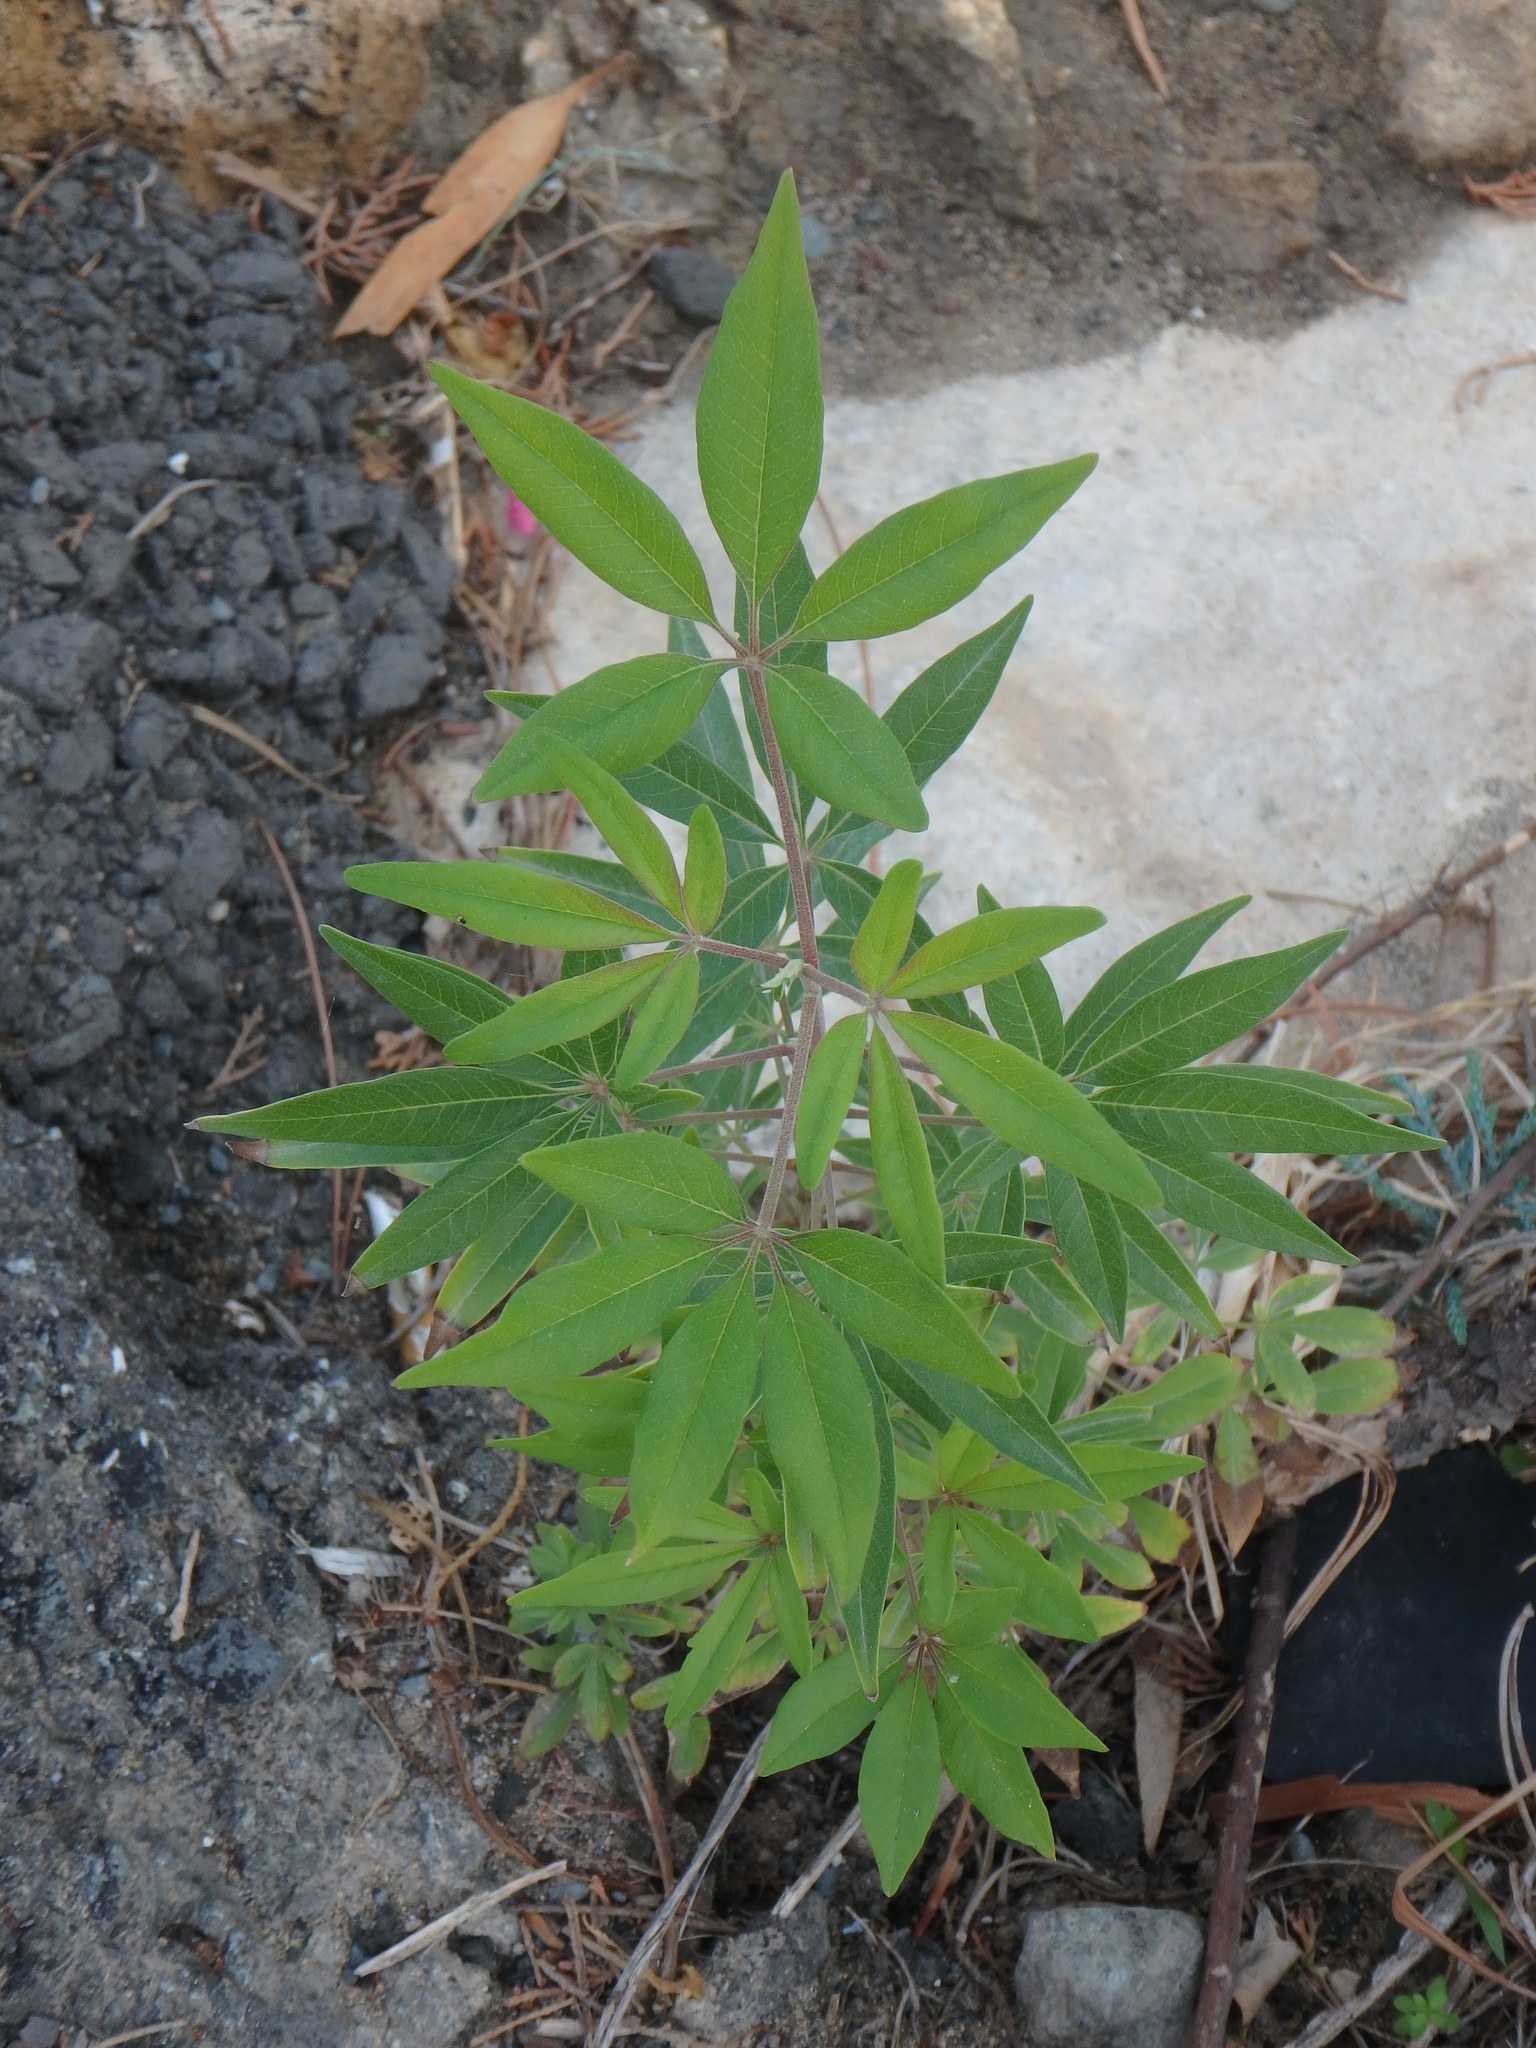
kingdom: Plantae
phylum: Tracheophyta
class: Magnoliopsida
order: Lamiales
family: Lamiaceae
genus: Vitex
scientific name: Vitex agnus-castus
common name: Chasteberry
